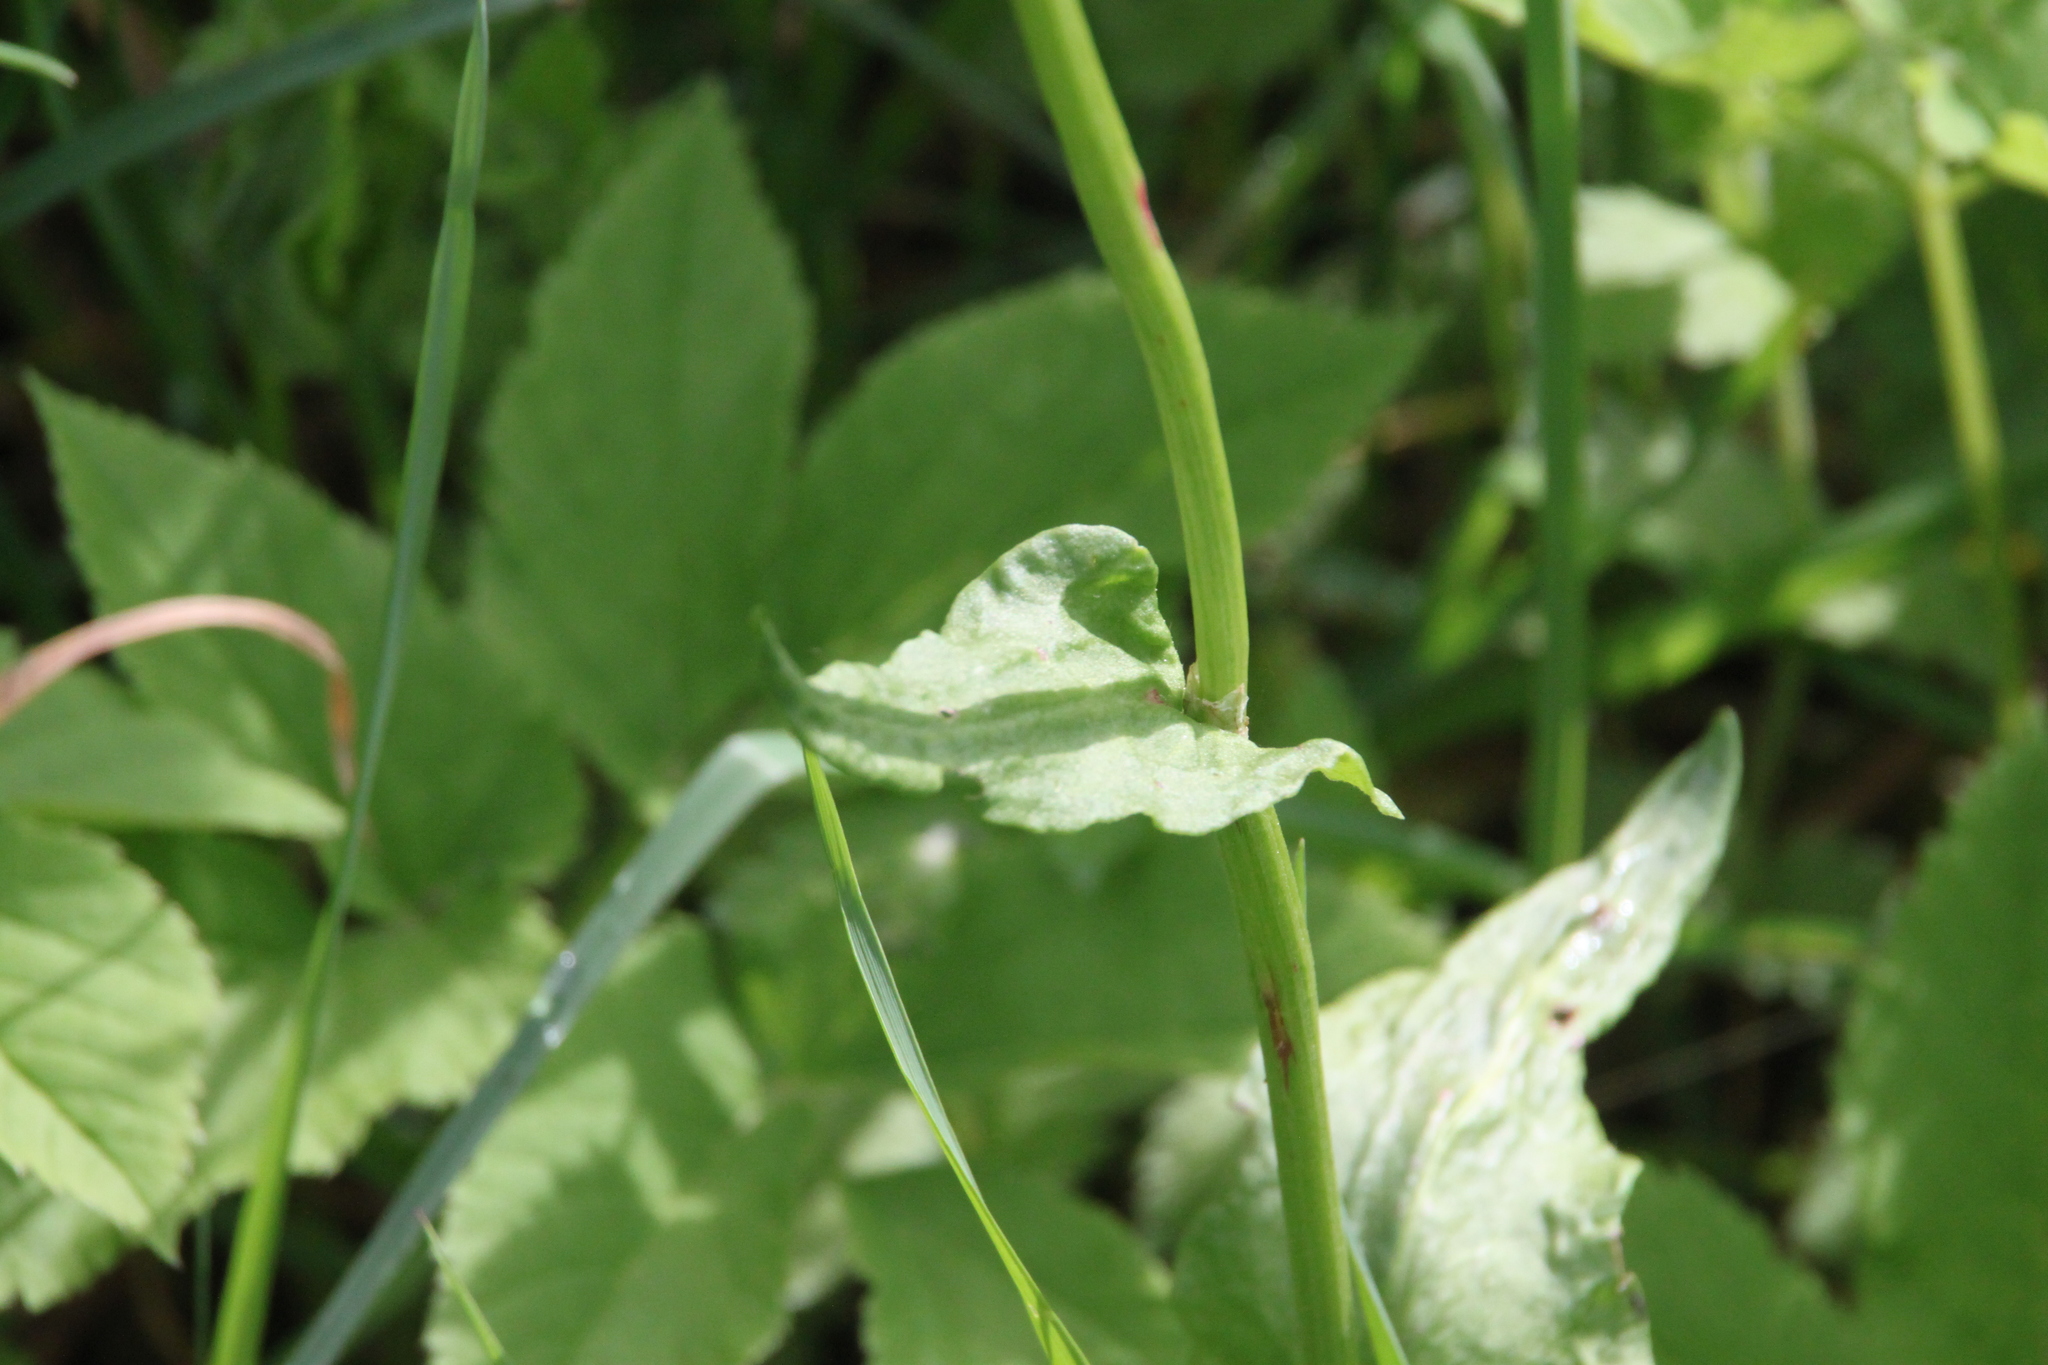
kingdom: Plantae
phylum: Tracheophyta
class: Magnoliopsida
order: Caryophyllales
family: Polygonaceae
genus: Rumex
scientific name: Rumex acetosa
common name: Garden sorrel
